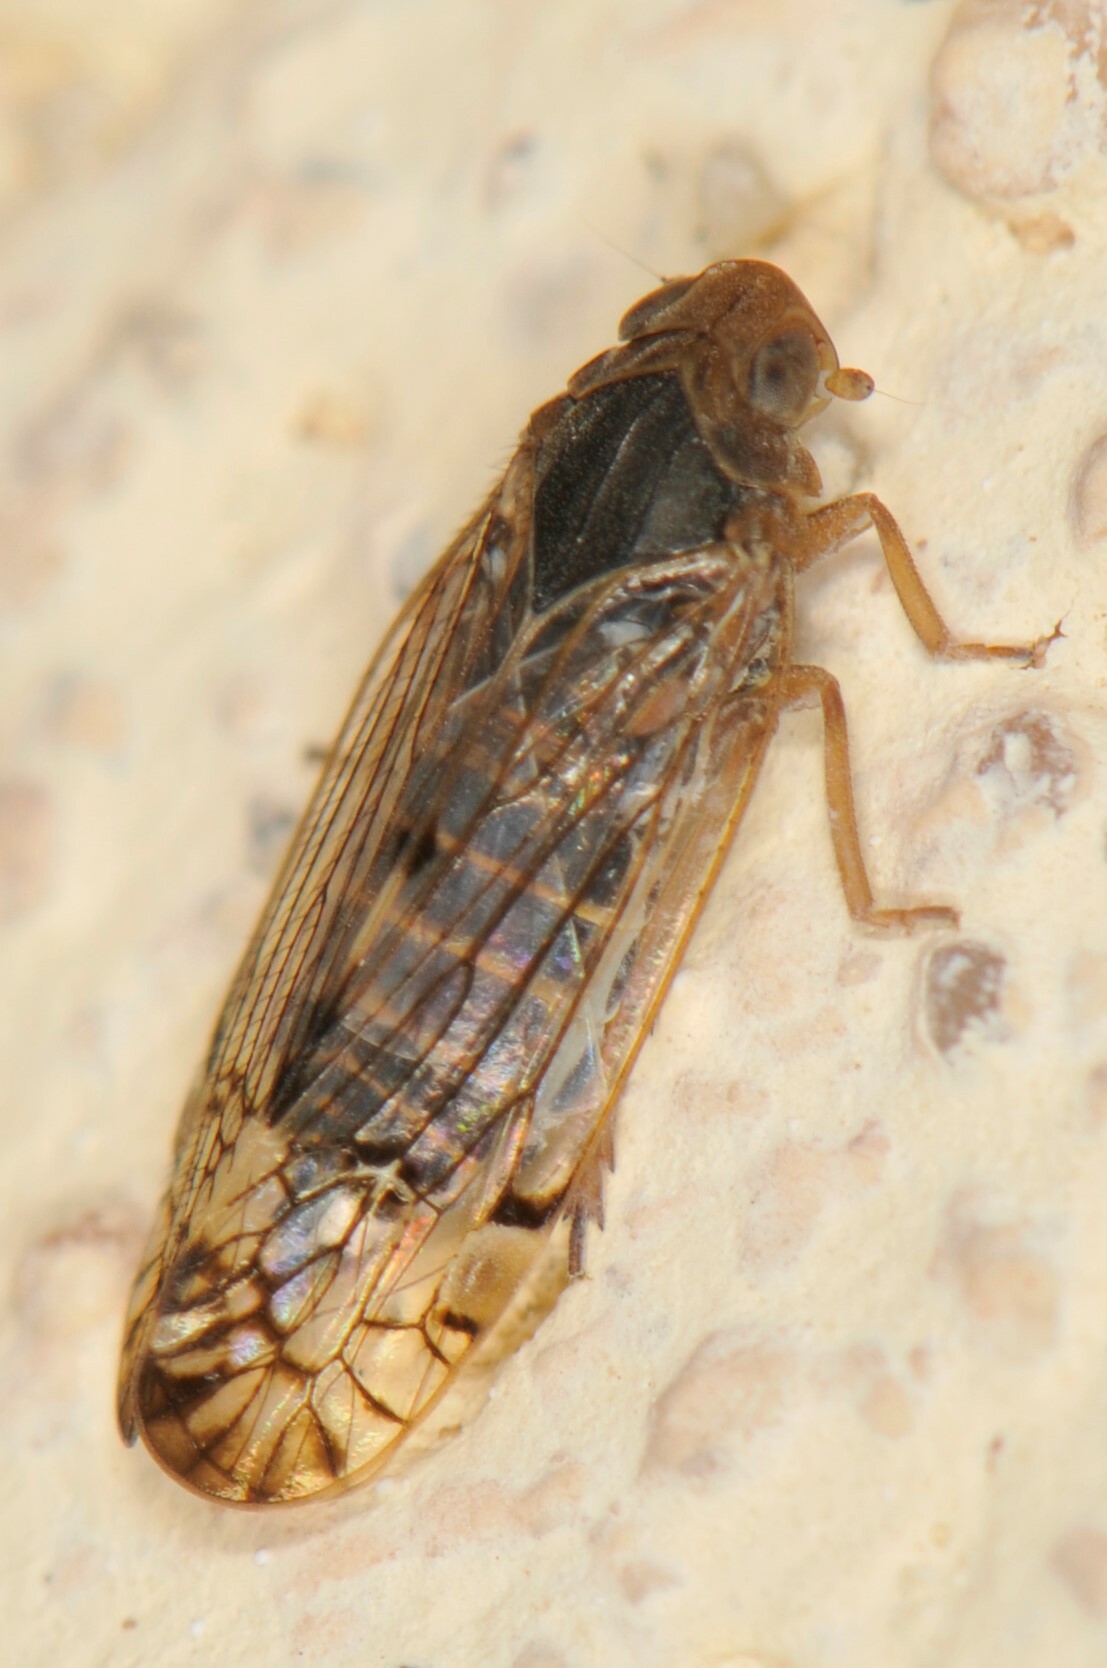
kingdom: Animalia
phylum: Arthropoda
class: Insecta
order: Hemiptera
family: Cixiidae
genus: Platycixius
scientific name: Platycixius calvus
